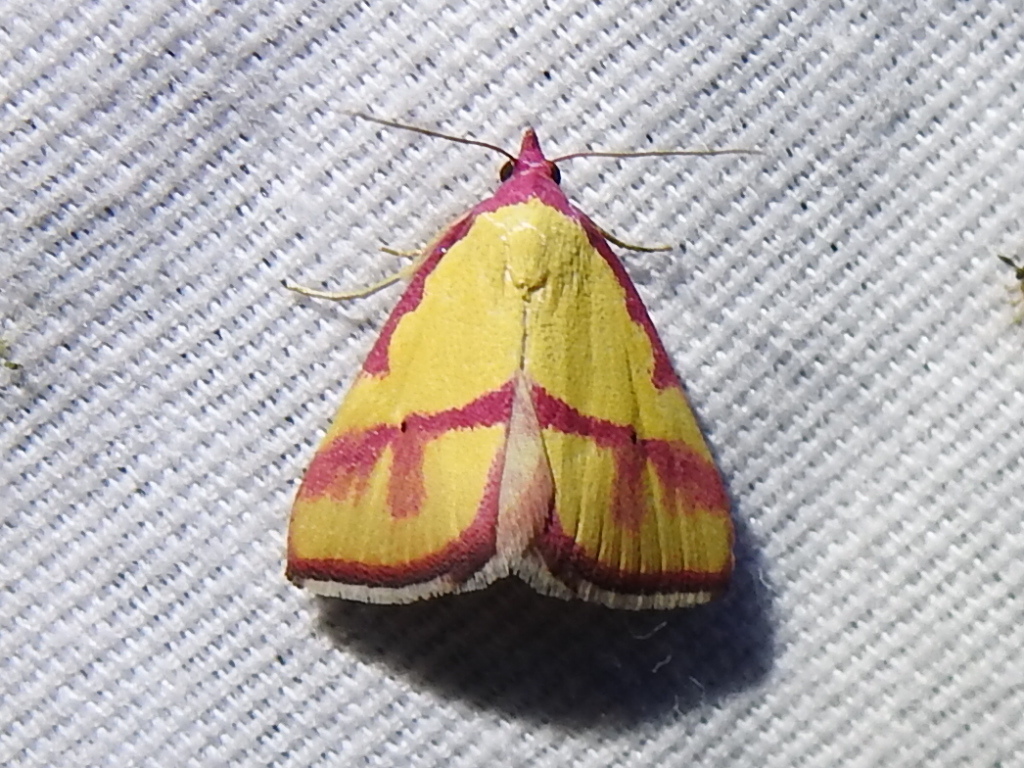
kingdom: Animalia
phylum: Arthropoda
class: Insecta
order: Lepidoptera
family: Erebidae
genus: Phytometra
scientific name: Phytometra ernestinana
